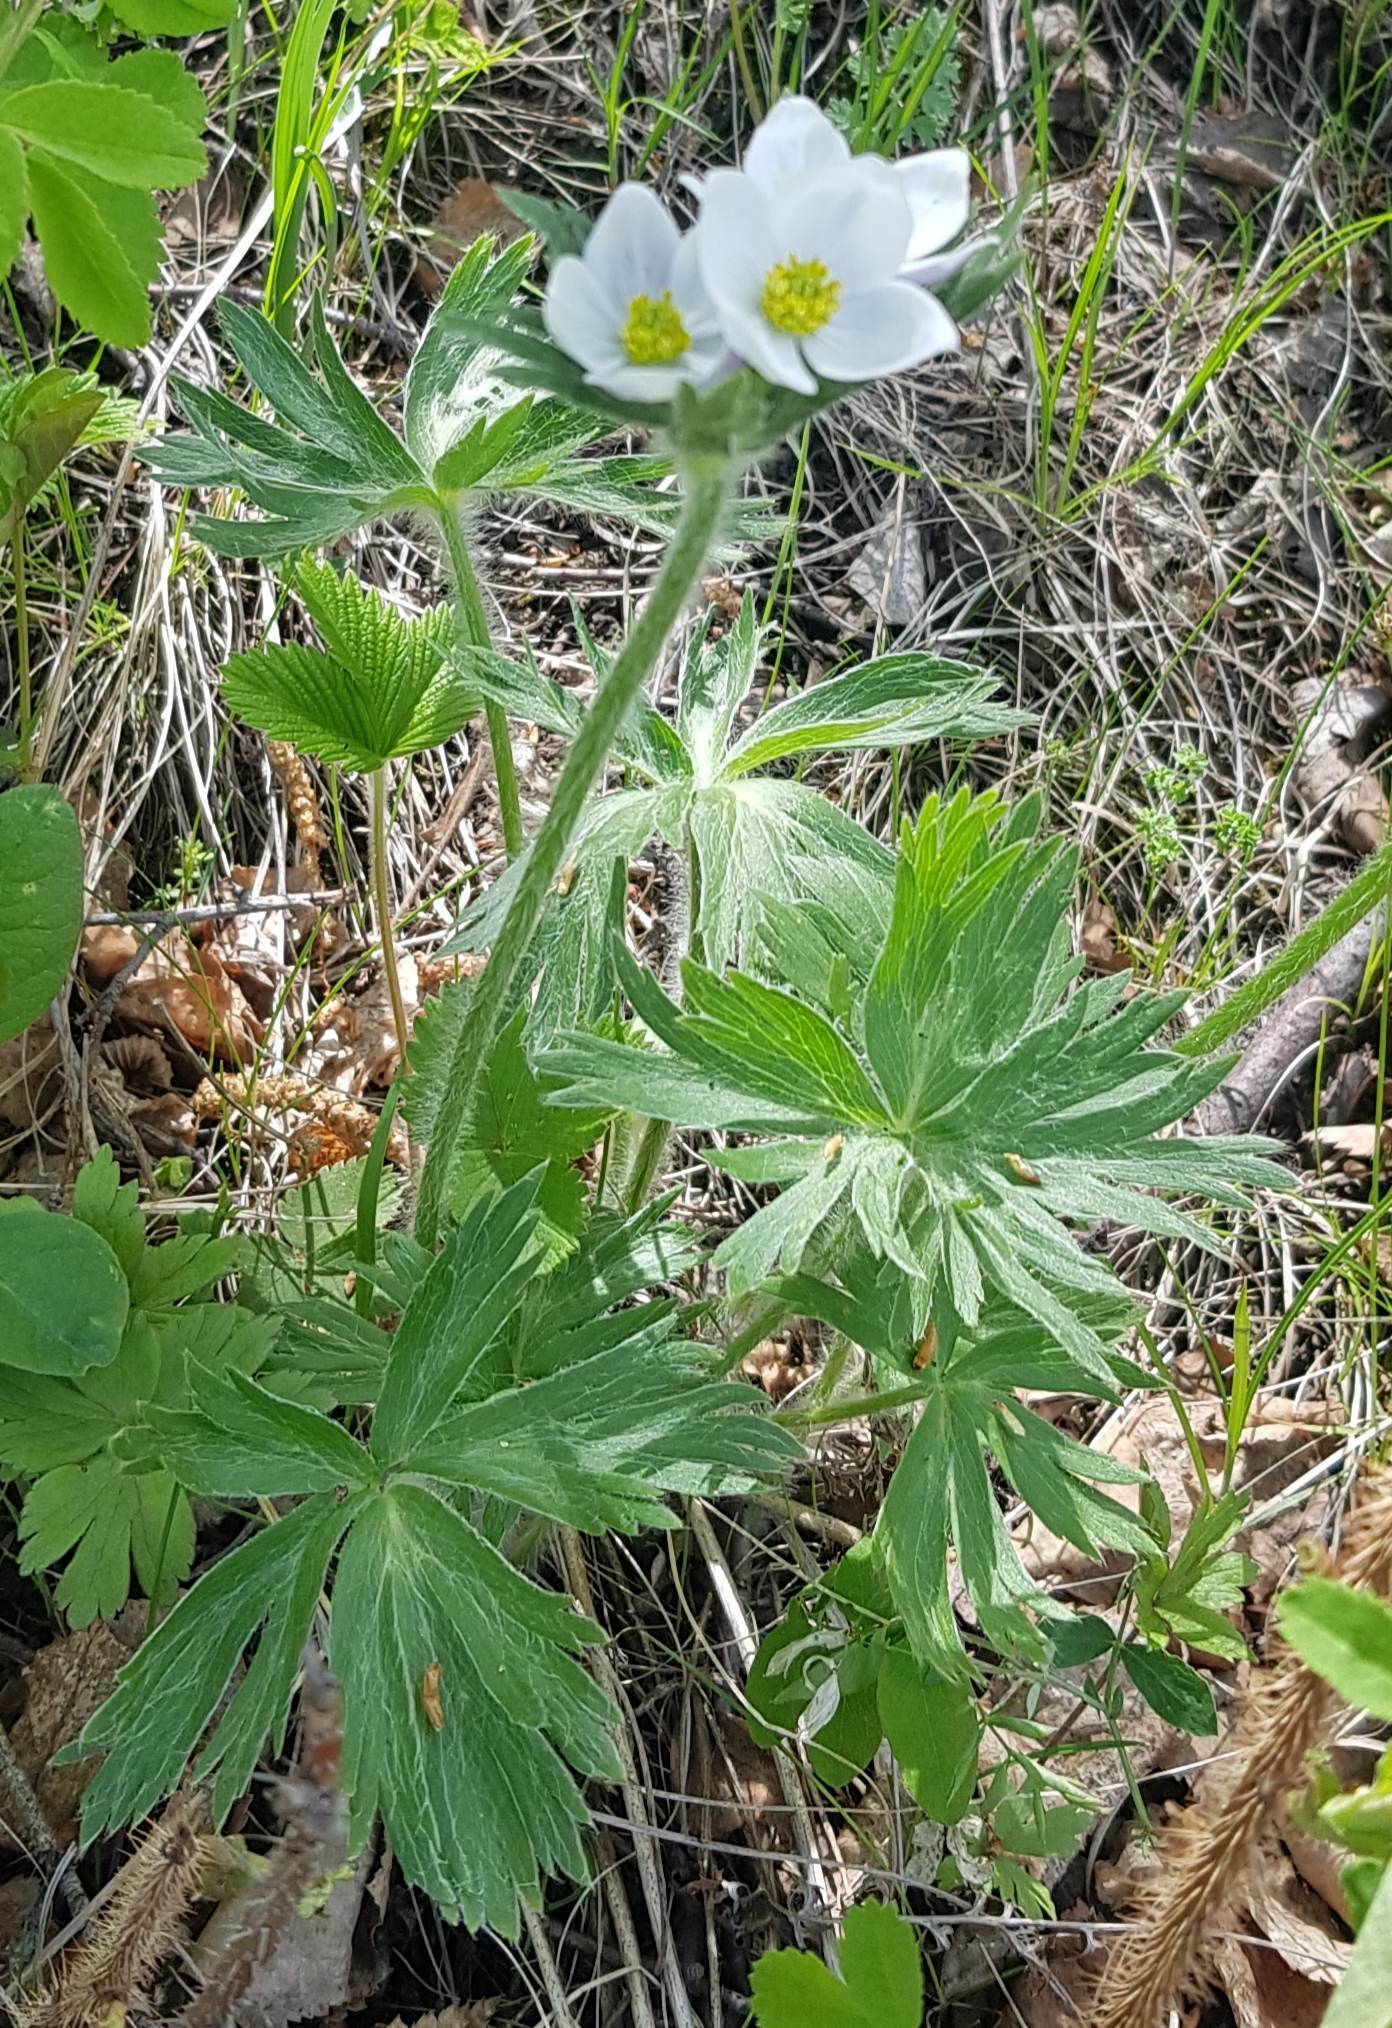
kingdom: Plantae
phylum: Tracheophyta
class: Magnoliopsida
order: Ranunculales
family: Ranunculaceae
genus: Anemonastrum
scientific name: Anemonastrum narcissiflorum
